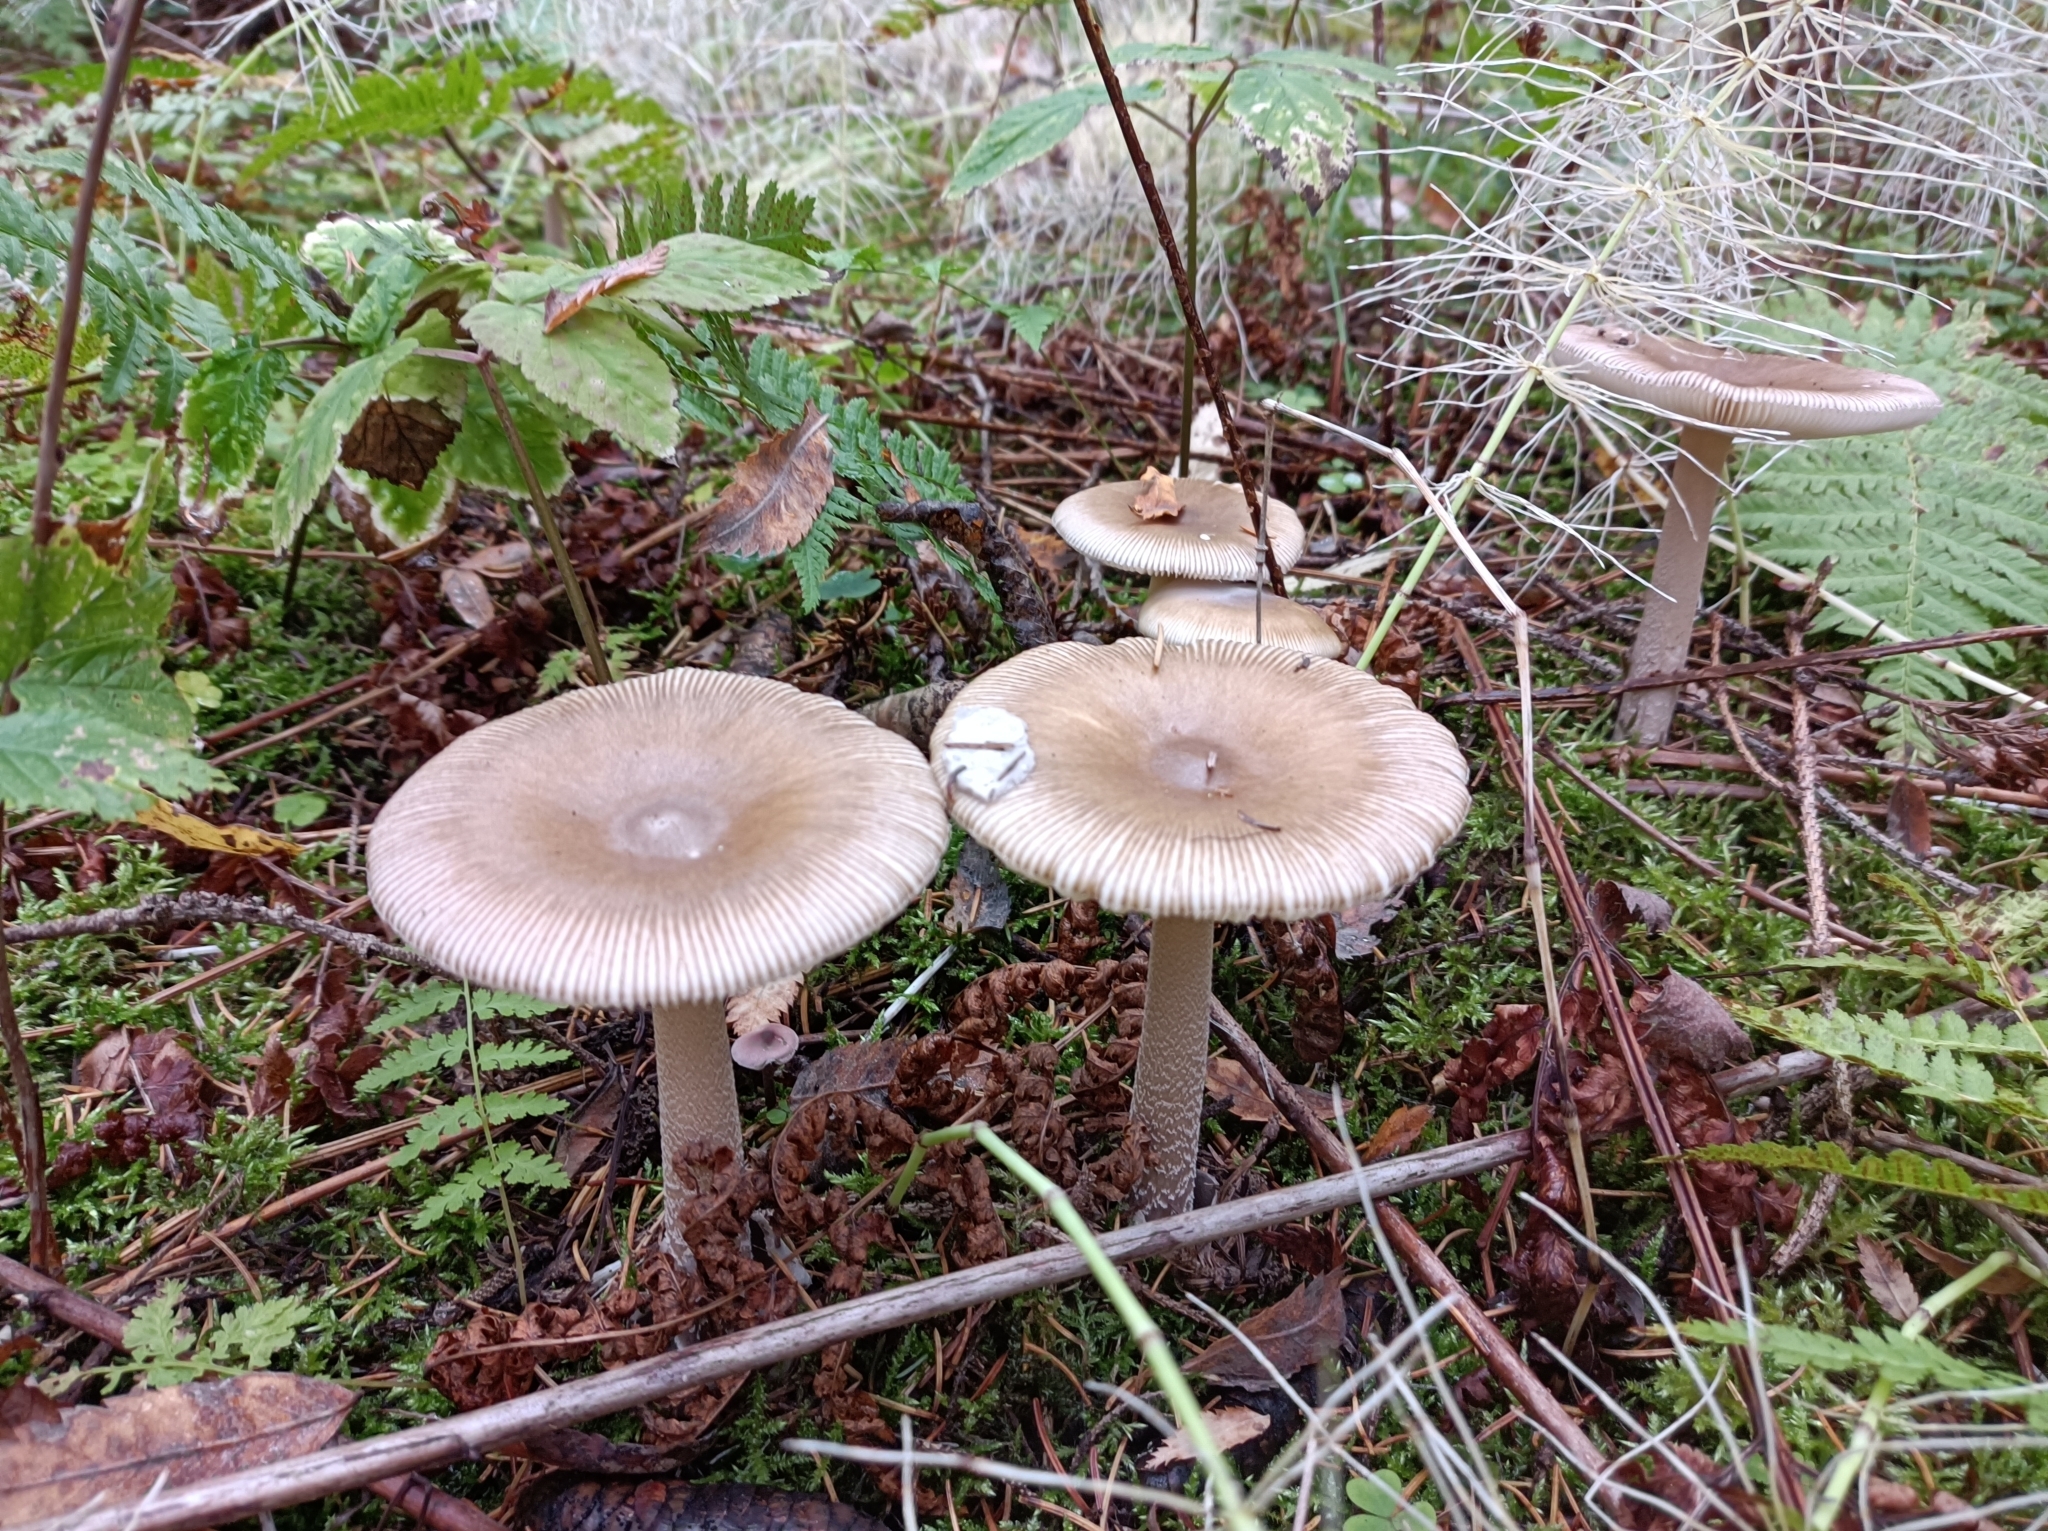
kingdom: Fungi
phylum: Basidiomycota
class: Agaricomycetes
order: Agaricales
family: Amanitaceae
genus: Amanita
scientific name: Amanita lividopallescens
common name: Pale grisette
